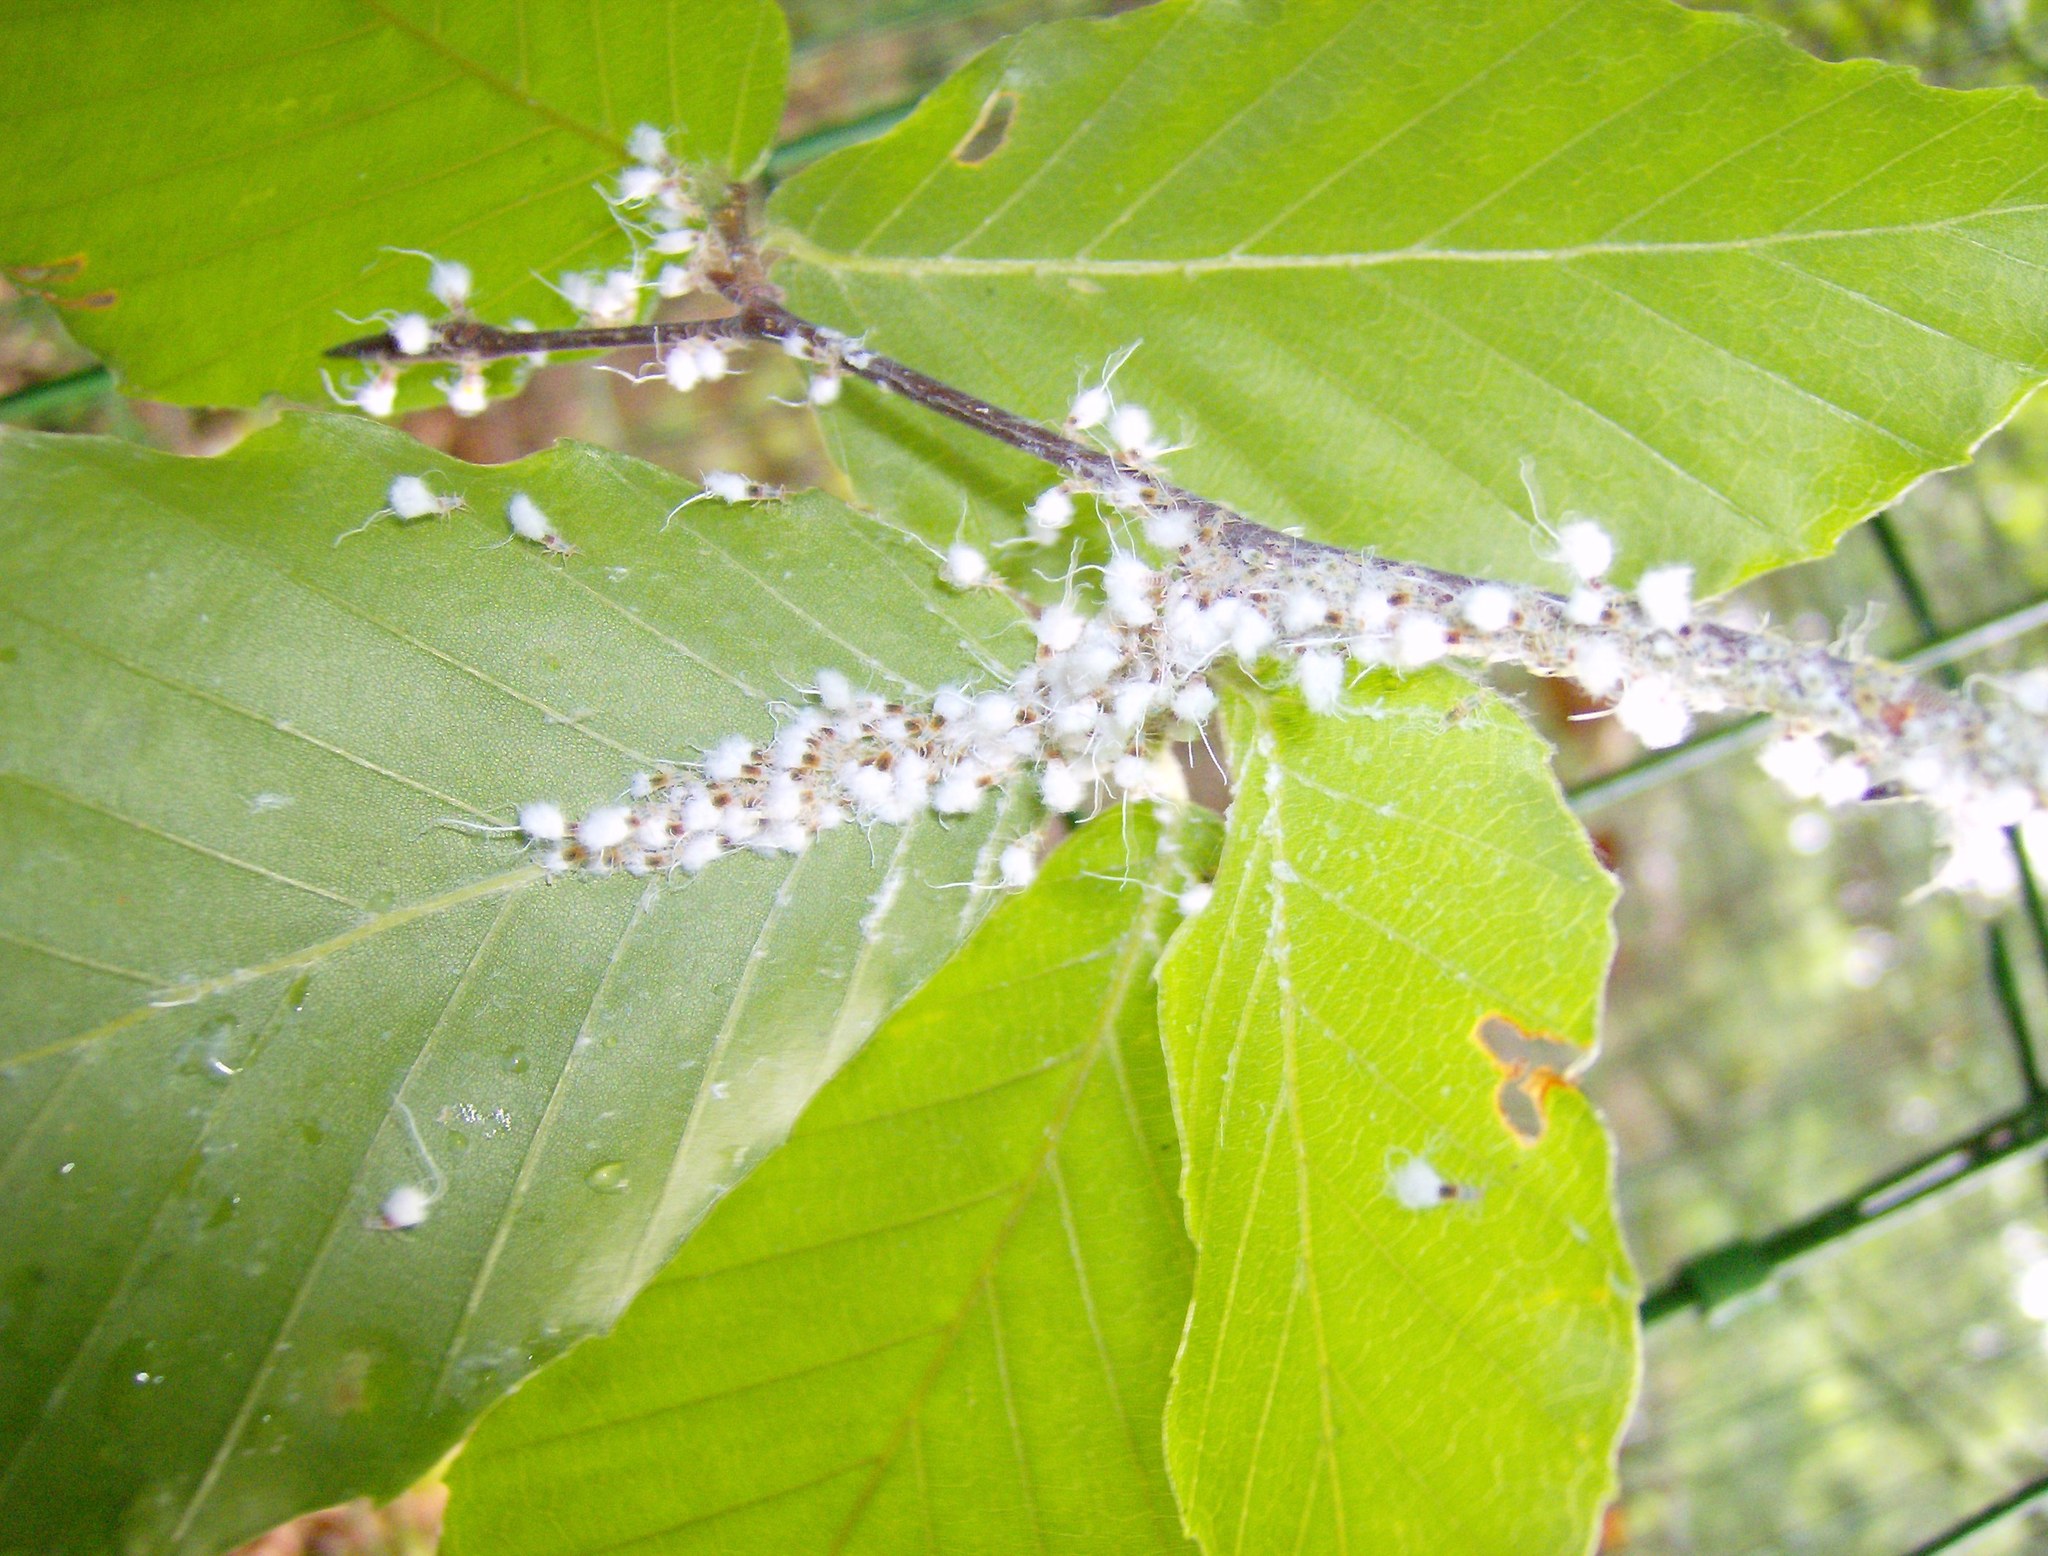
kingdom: Animalia
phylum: Arthropoda
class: Insecta
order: Hemiptera
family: Aphididae
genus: Grylloprociphilus
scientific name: Grylloprociphilus imbricator
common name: Beech blight aphid
